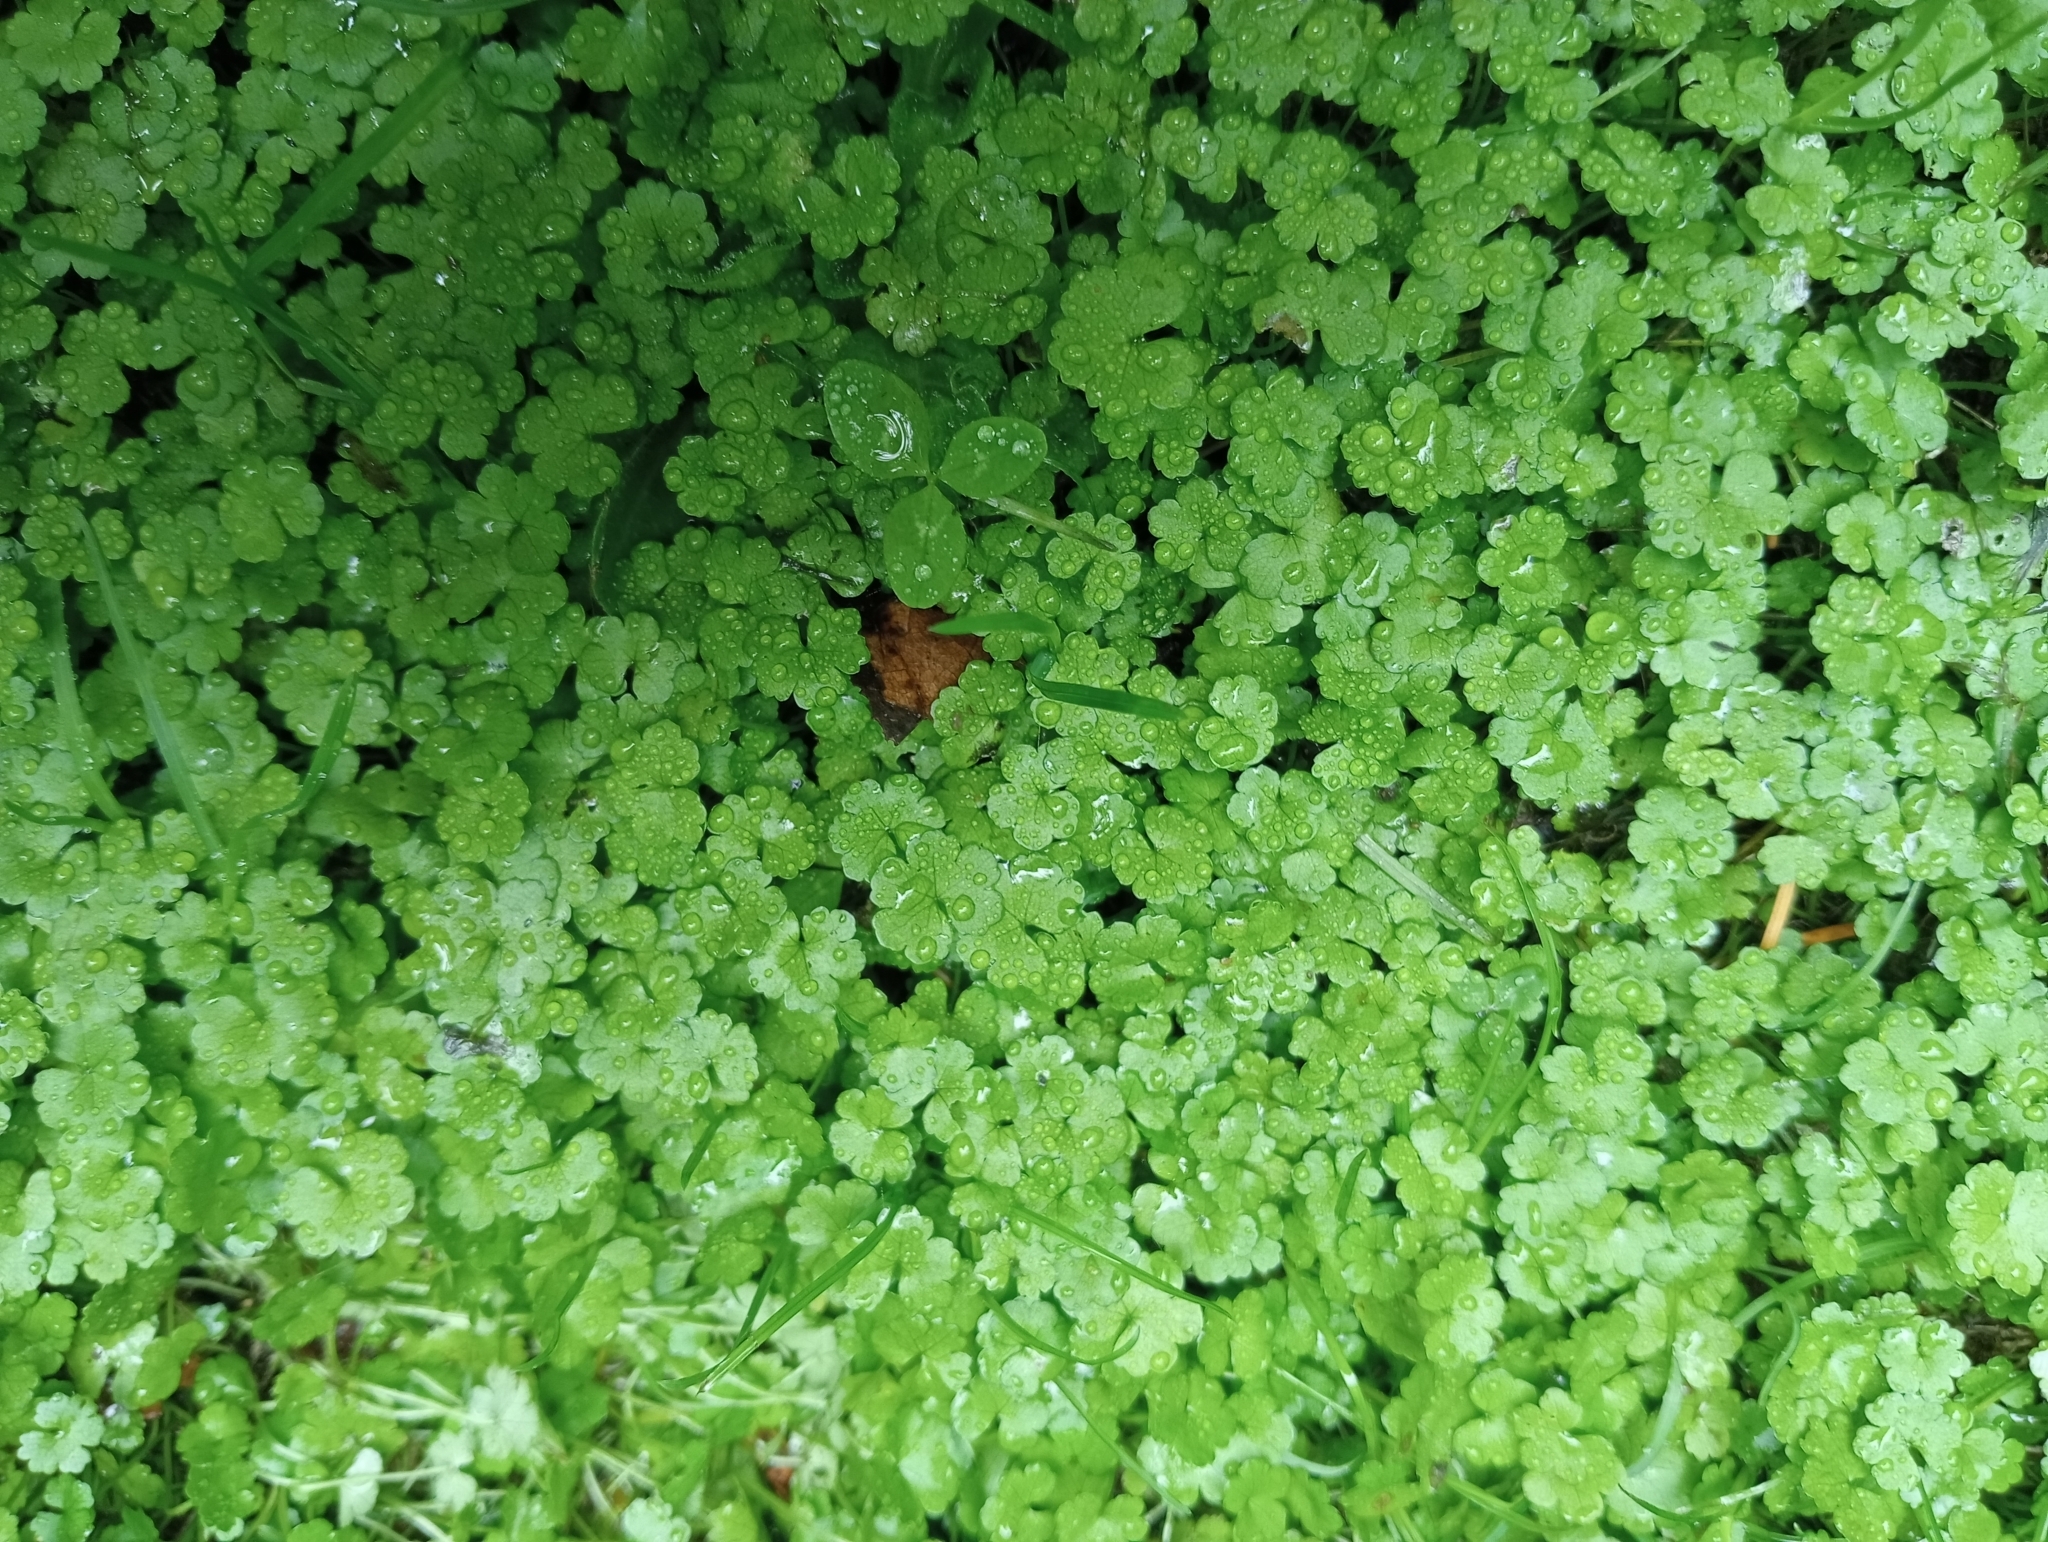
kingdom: Plantae
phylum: Tracheophyta
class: Magnoliopsida
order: Apiales
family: Araliaceae
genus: Hydrocotyle
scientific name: Hydrocotyle heteromeria
